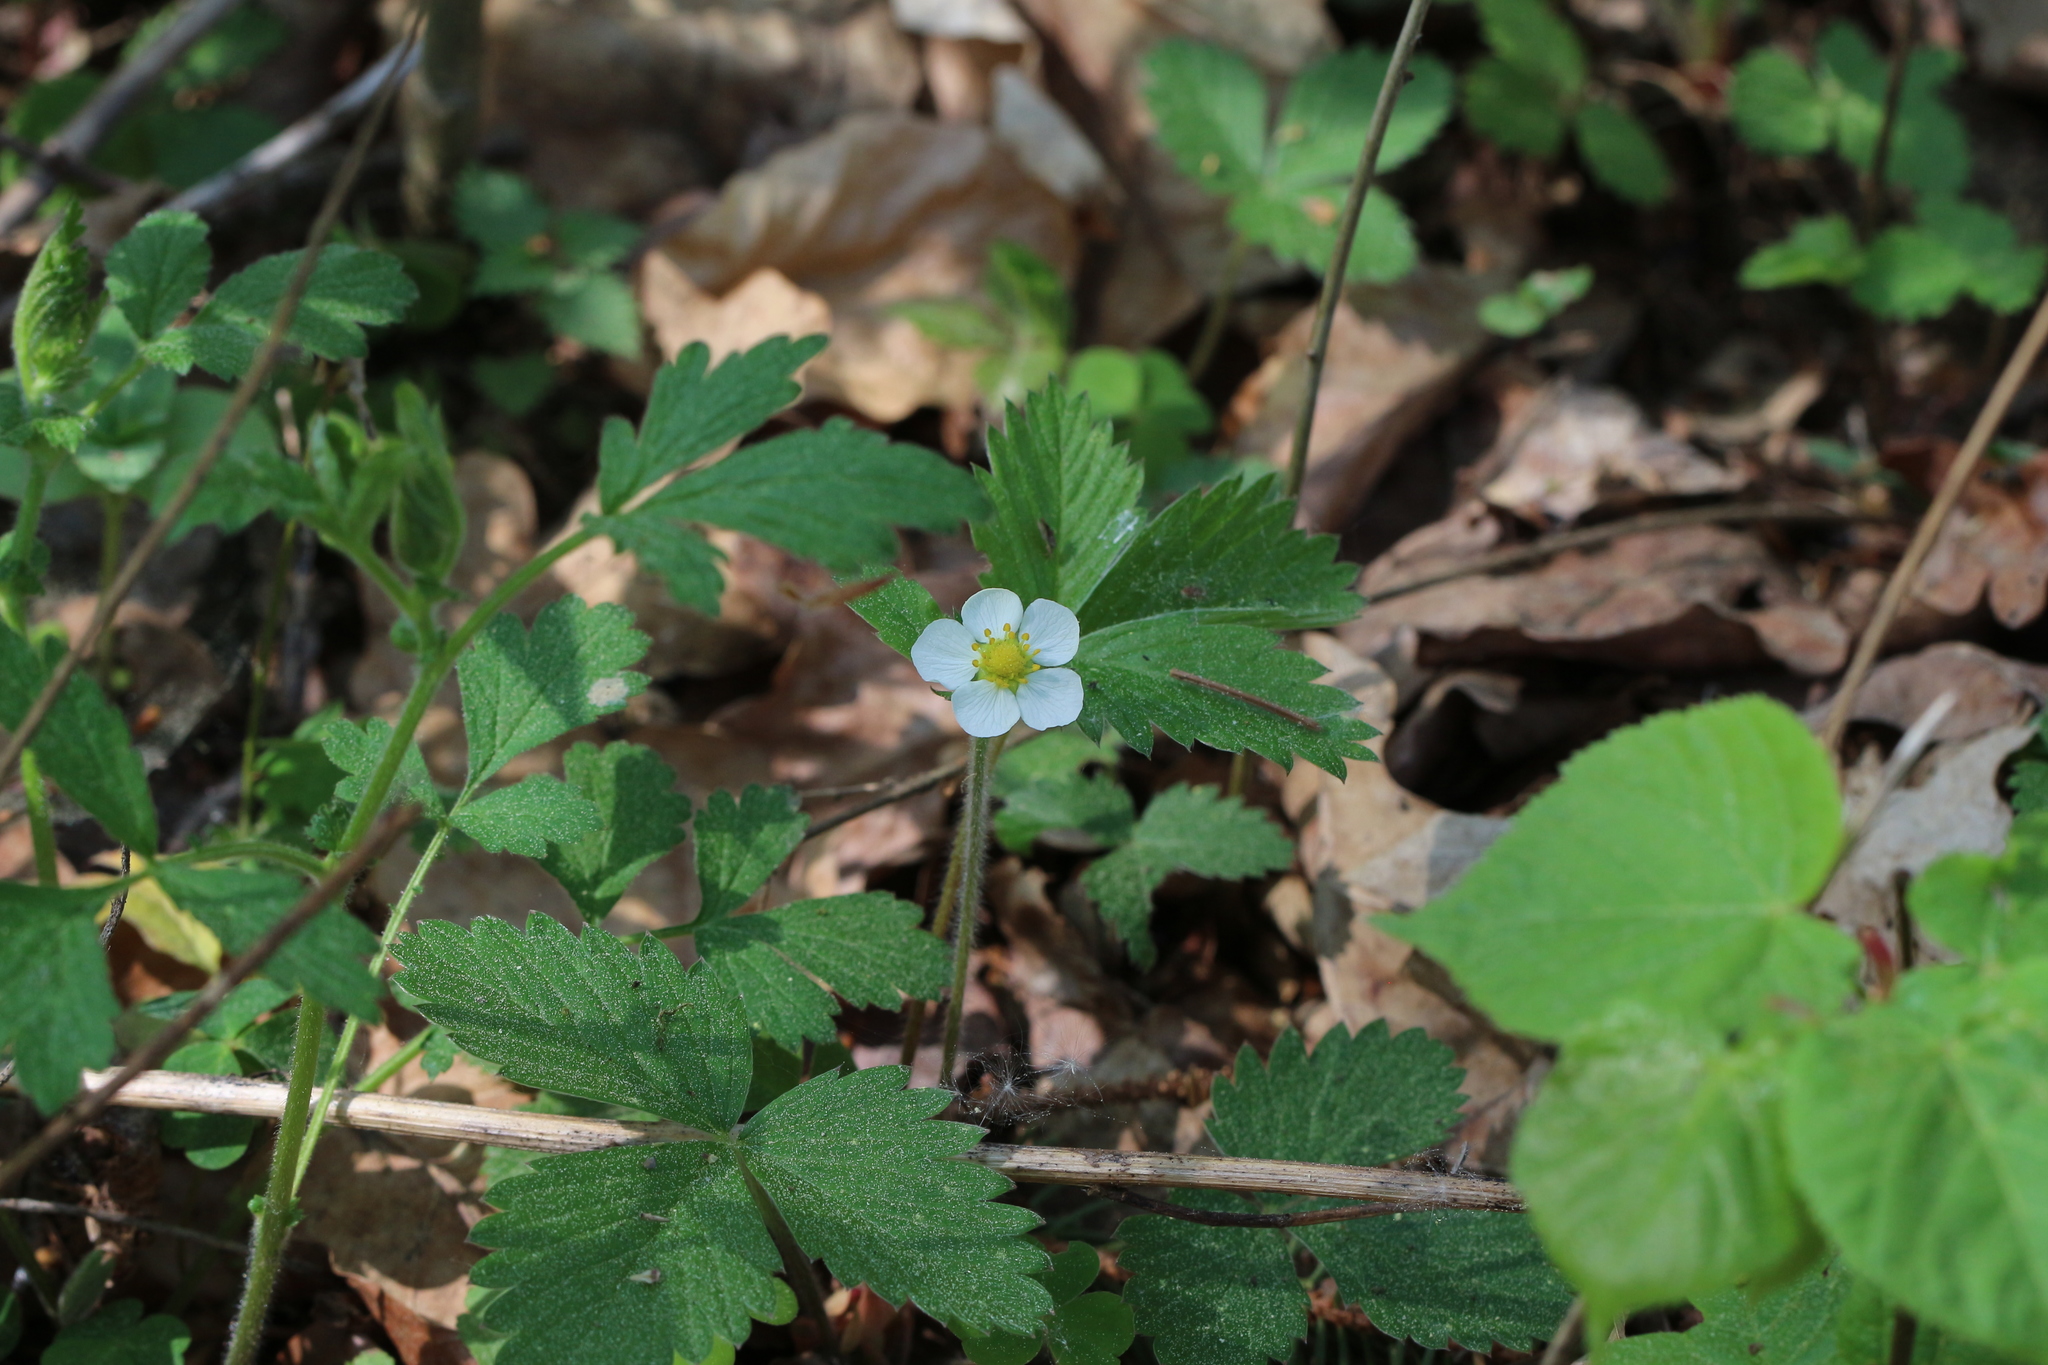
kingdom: Plantae
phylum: Tracheophyta
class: Magnoliopsida
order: Rosales
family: Rosaceae
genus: Fragaria
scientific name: Fragaria vesca
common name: Wild strawberry
